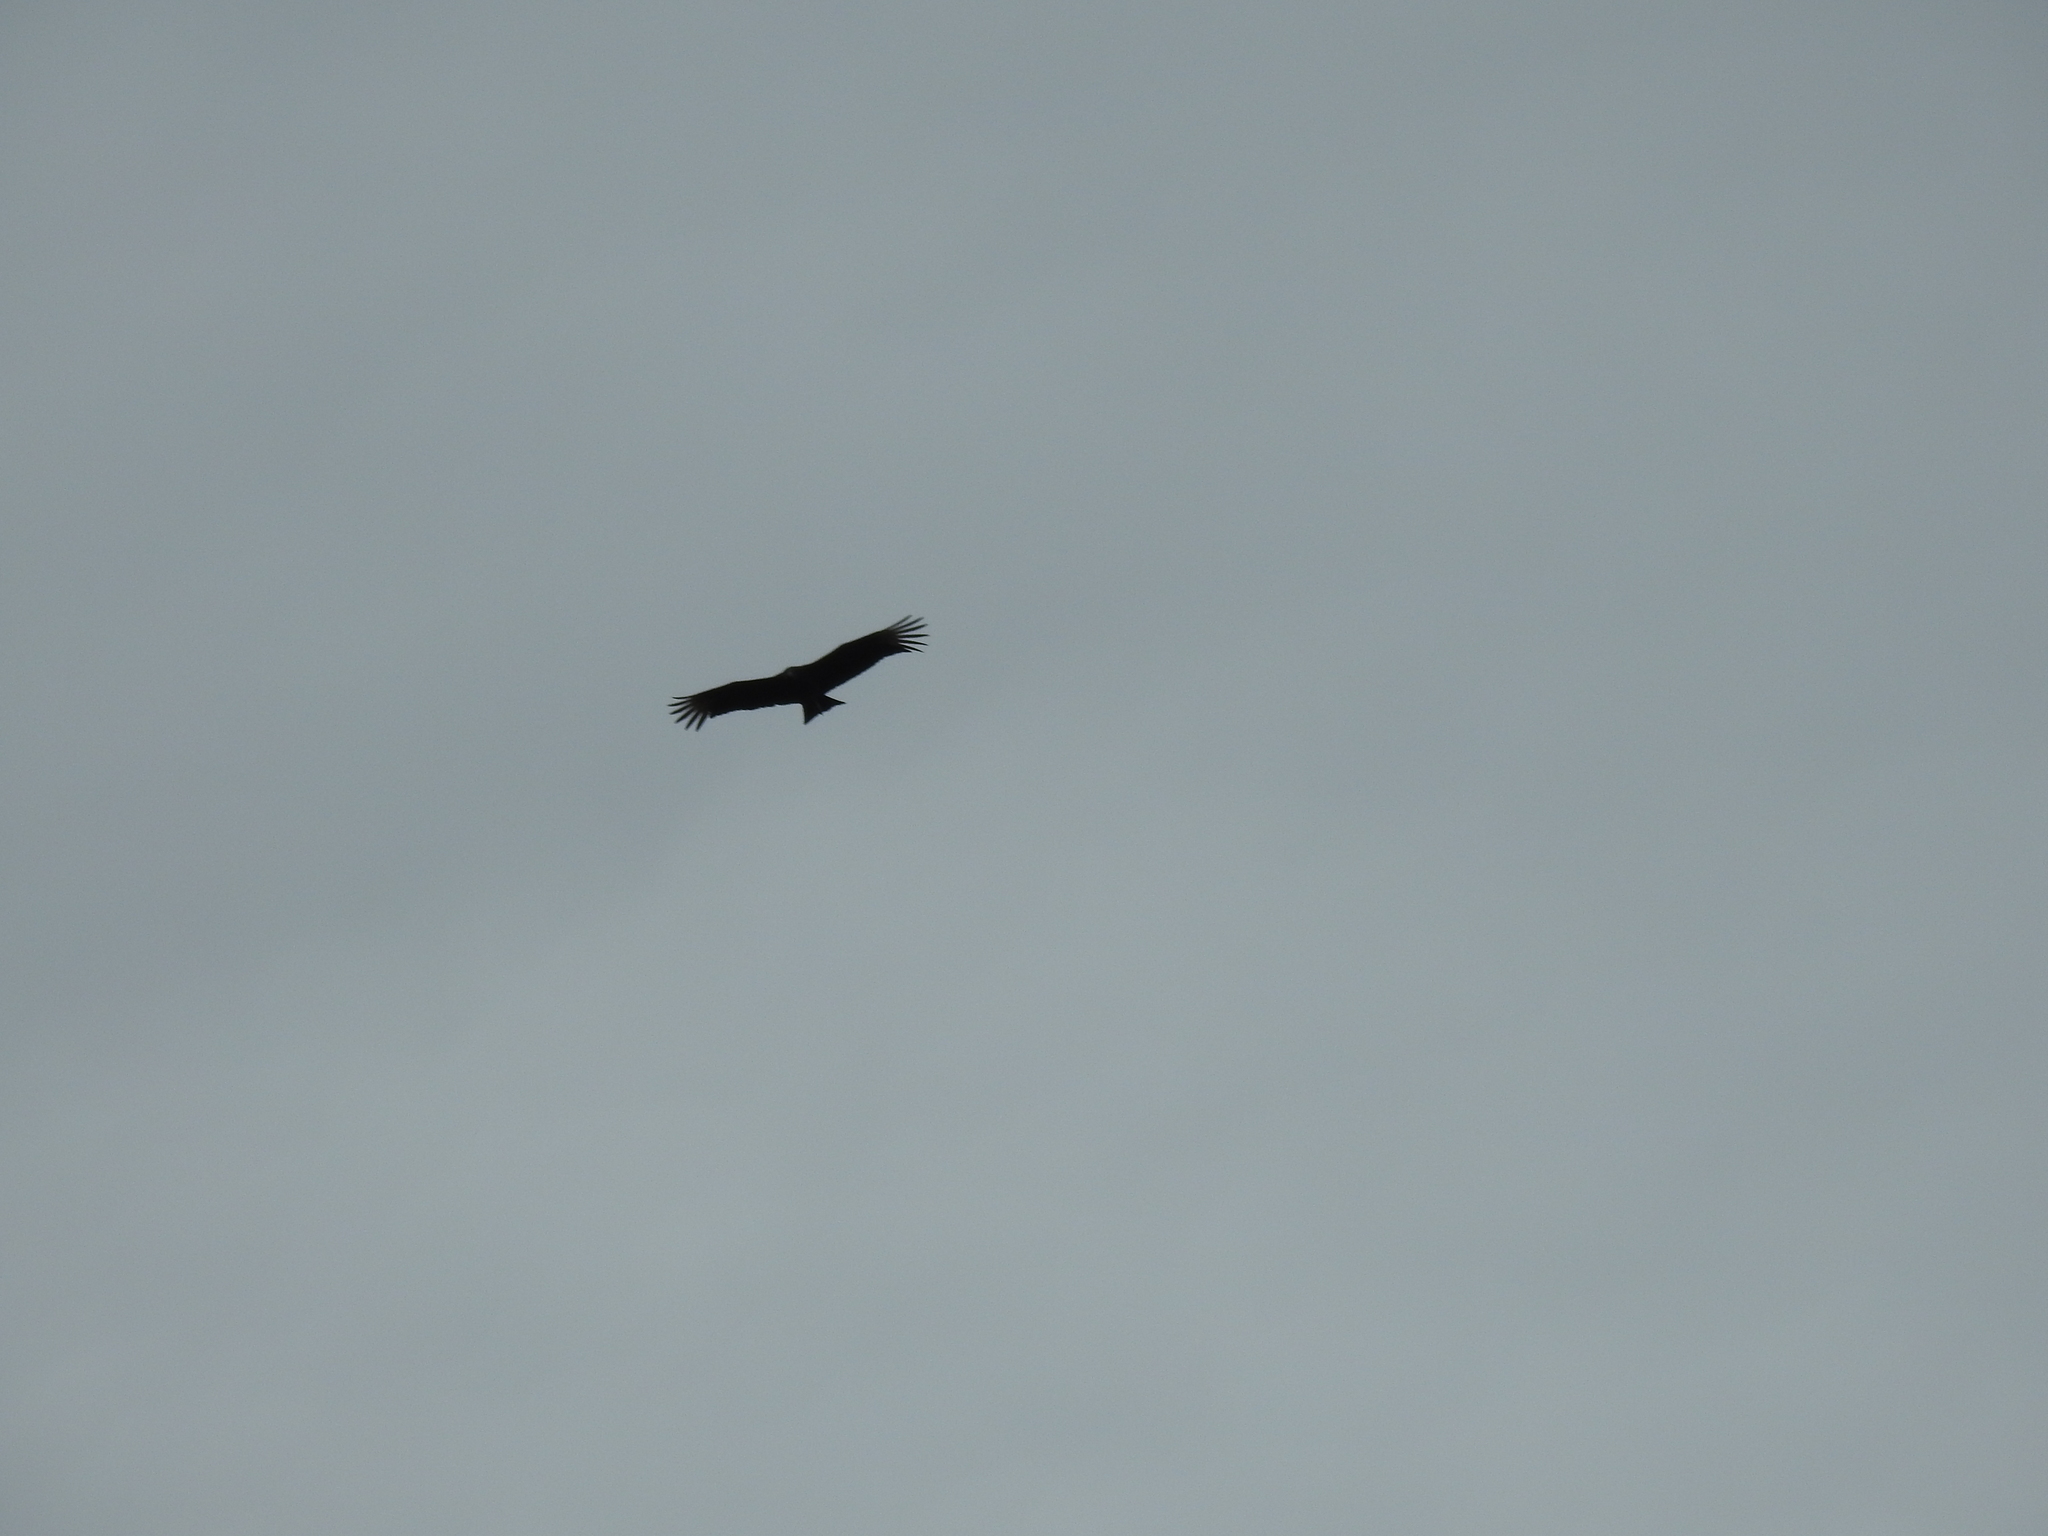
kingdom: Animalia
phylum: Chordata
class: Aves
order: Accipitriformes
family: Cathartidae
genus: Coragyps
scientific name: Coragyps atratus
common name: Black vulture
